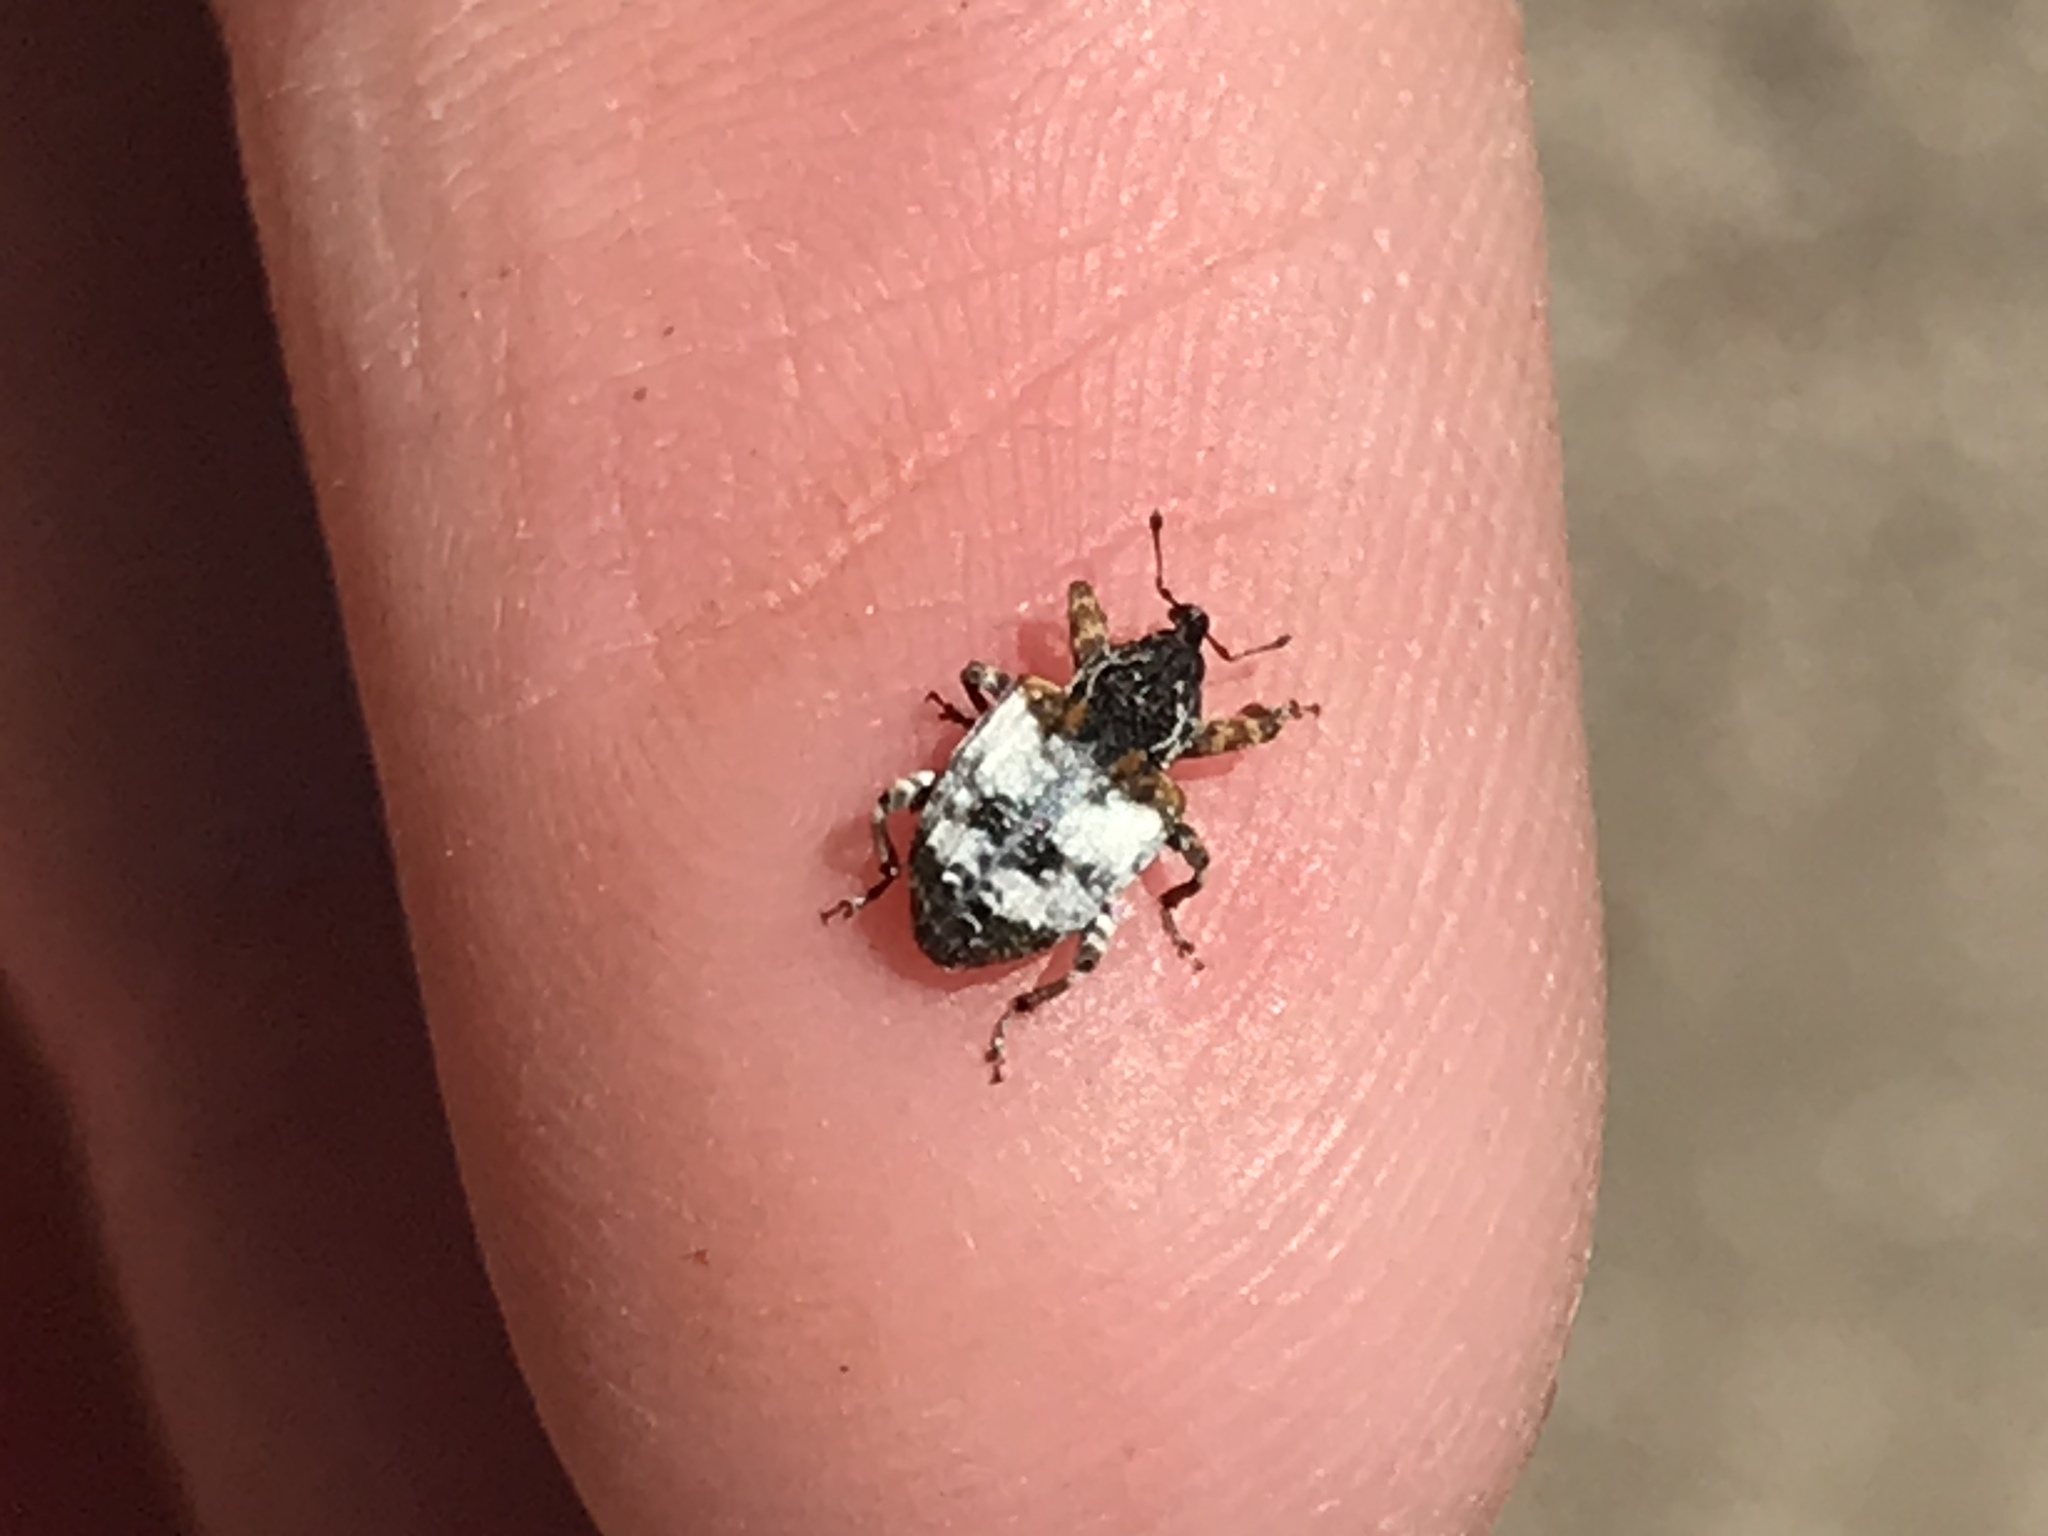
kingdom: Animalia
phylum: Arthropoda
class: Insecta
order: Coleoptera
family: Curculionidae
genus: Conotrachelus
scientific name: Conotrachelus leucophaeatus
